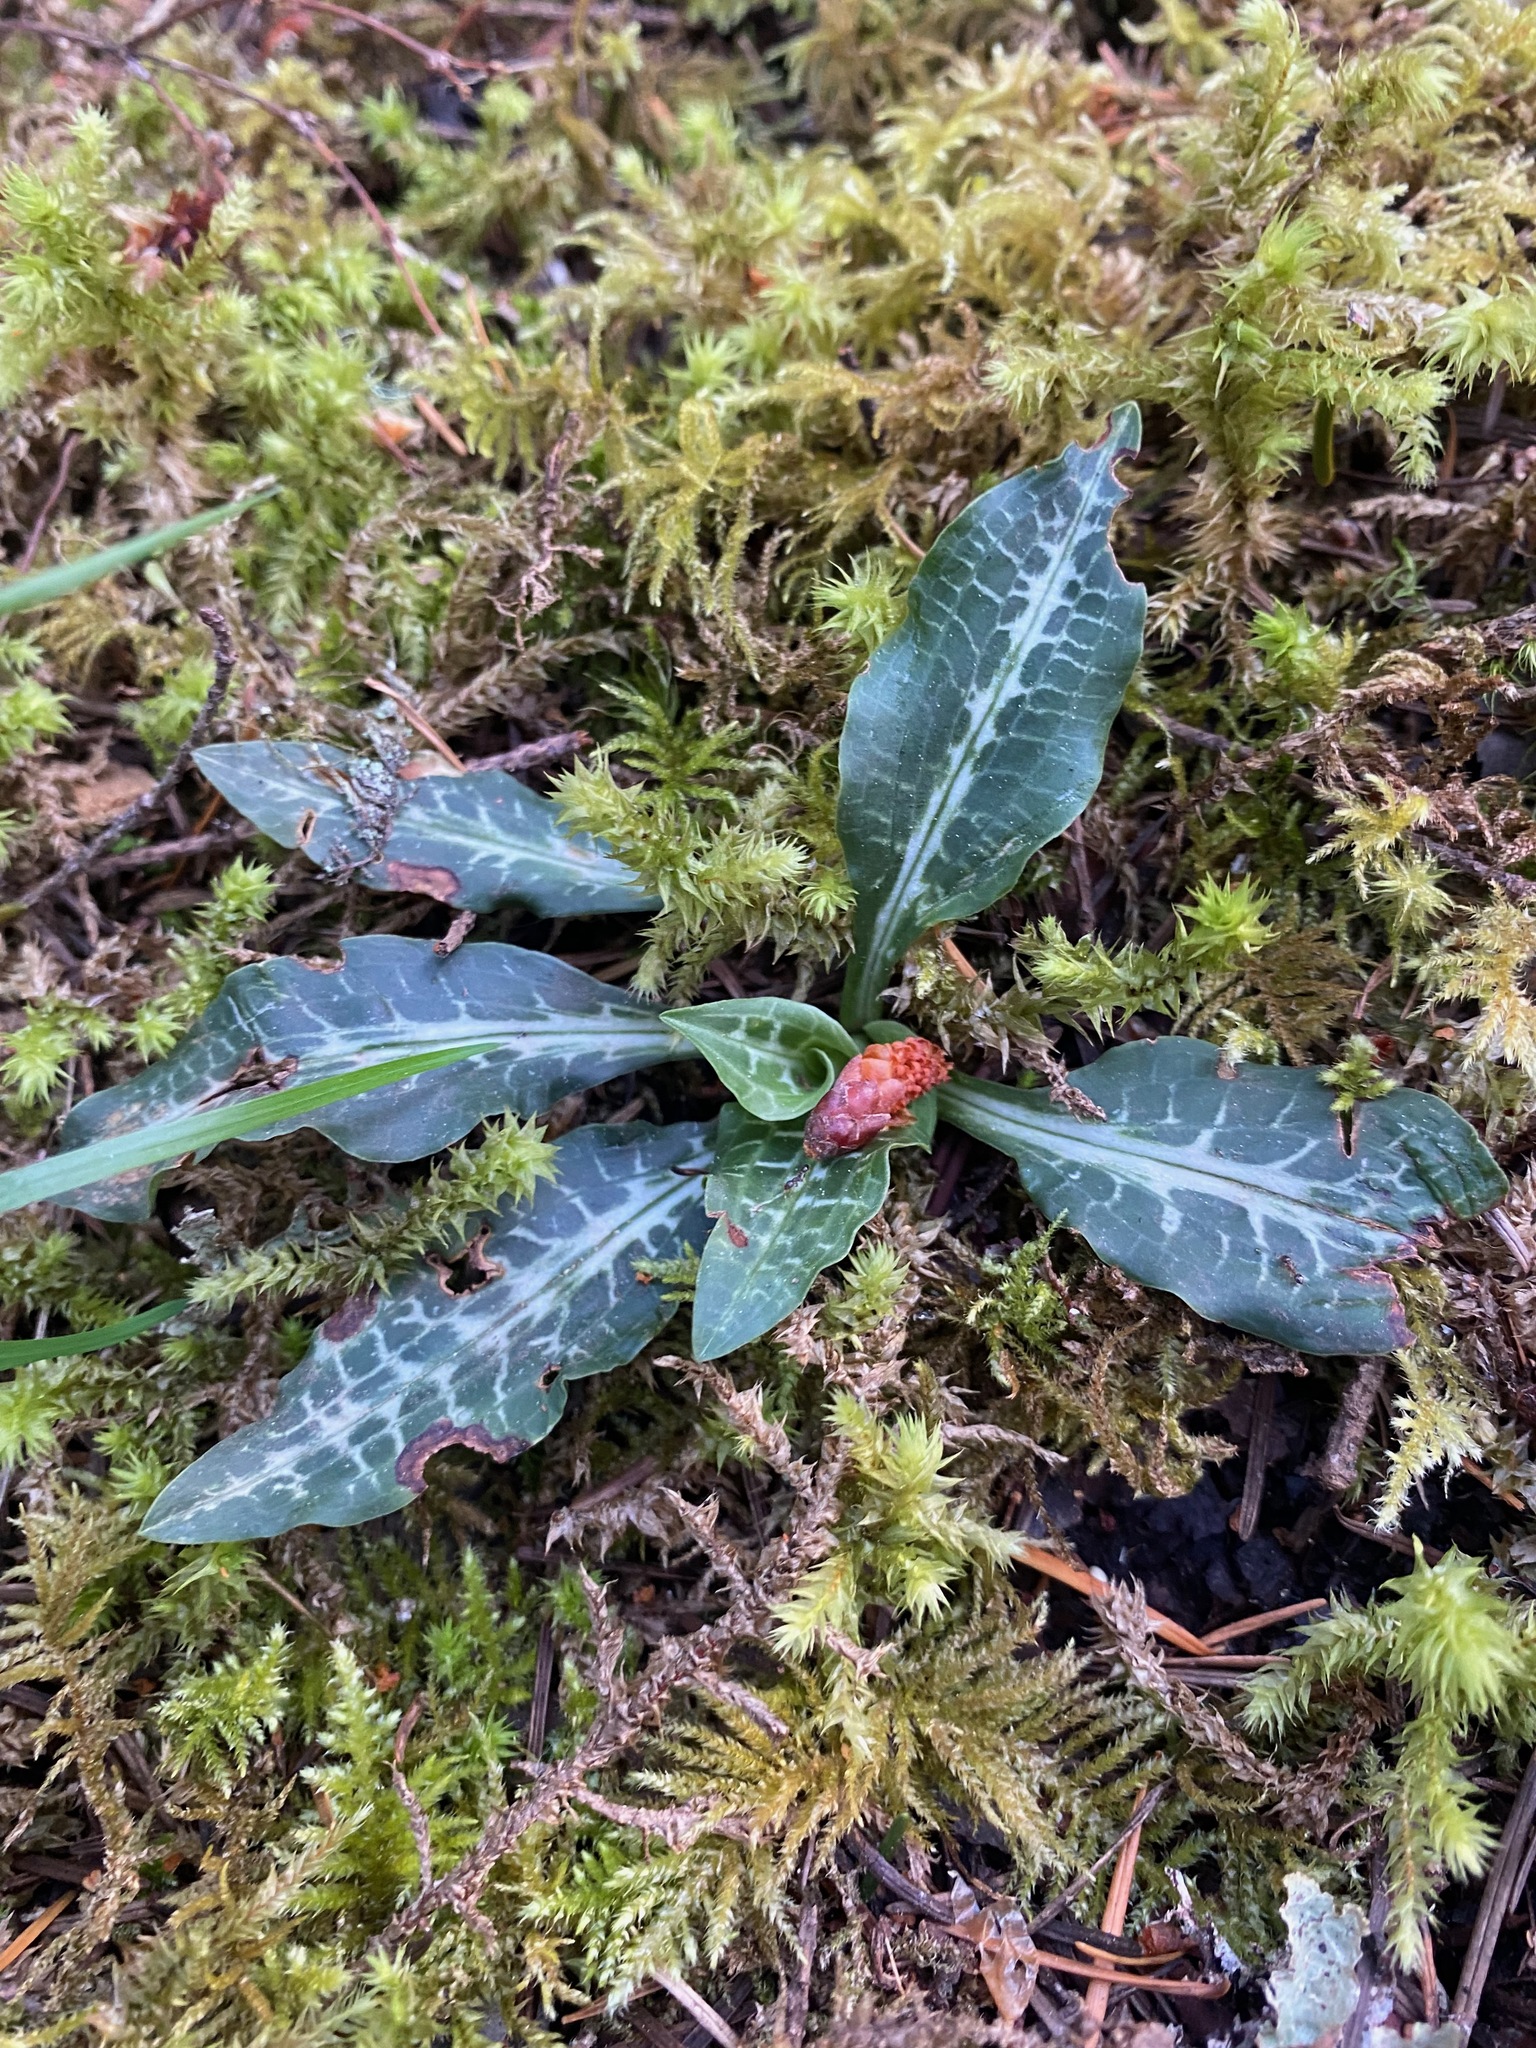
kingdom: Plantae
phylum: Tracheophyta
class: Liliopsida
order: Asparagales
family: Orchidaceae
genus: Goodyera
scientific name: Goodyera oblongifolia
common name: Giant rattlesnake-plantain
